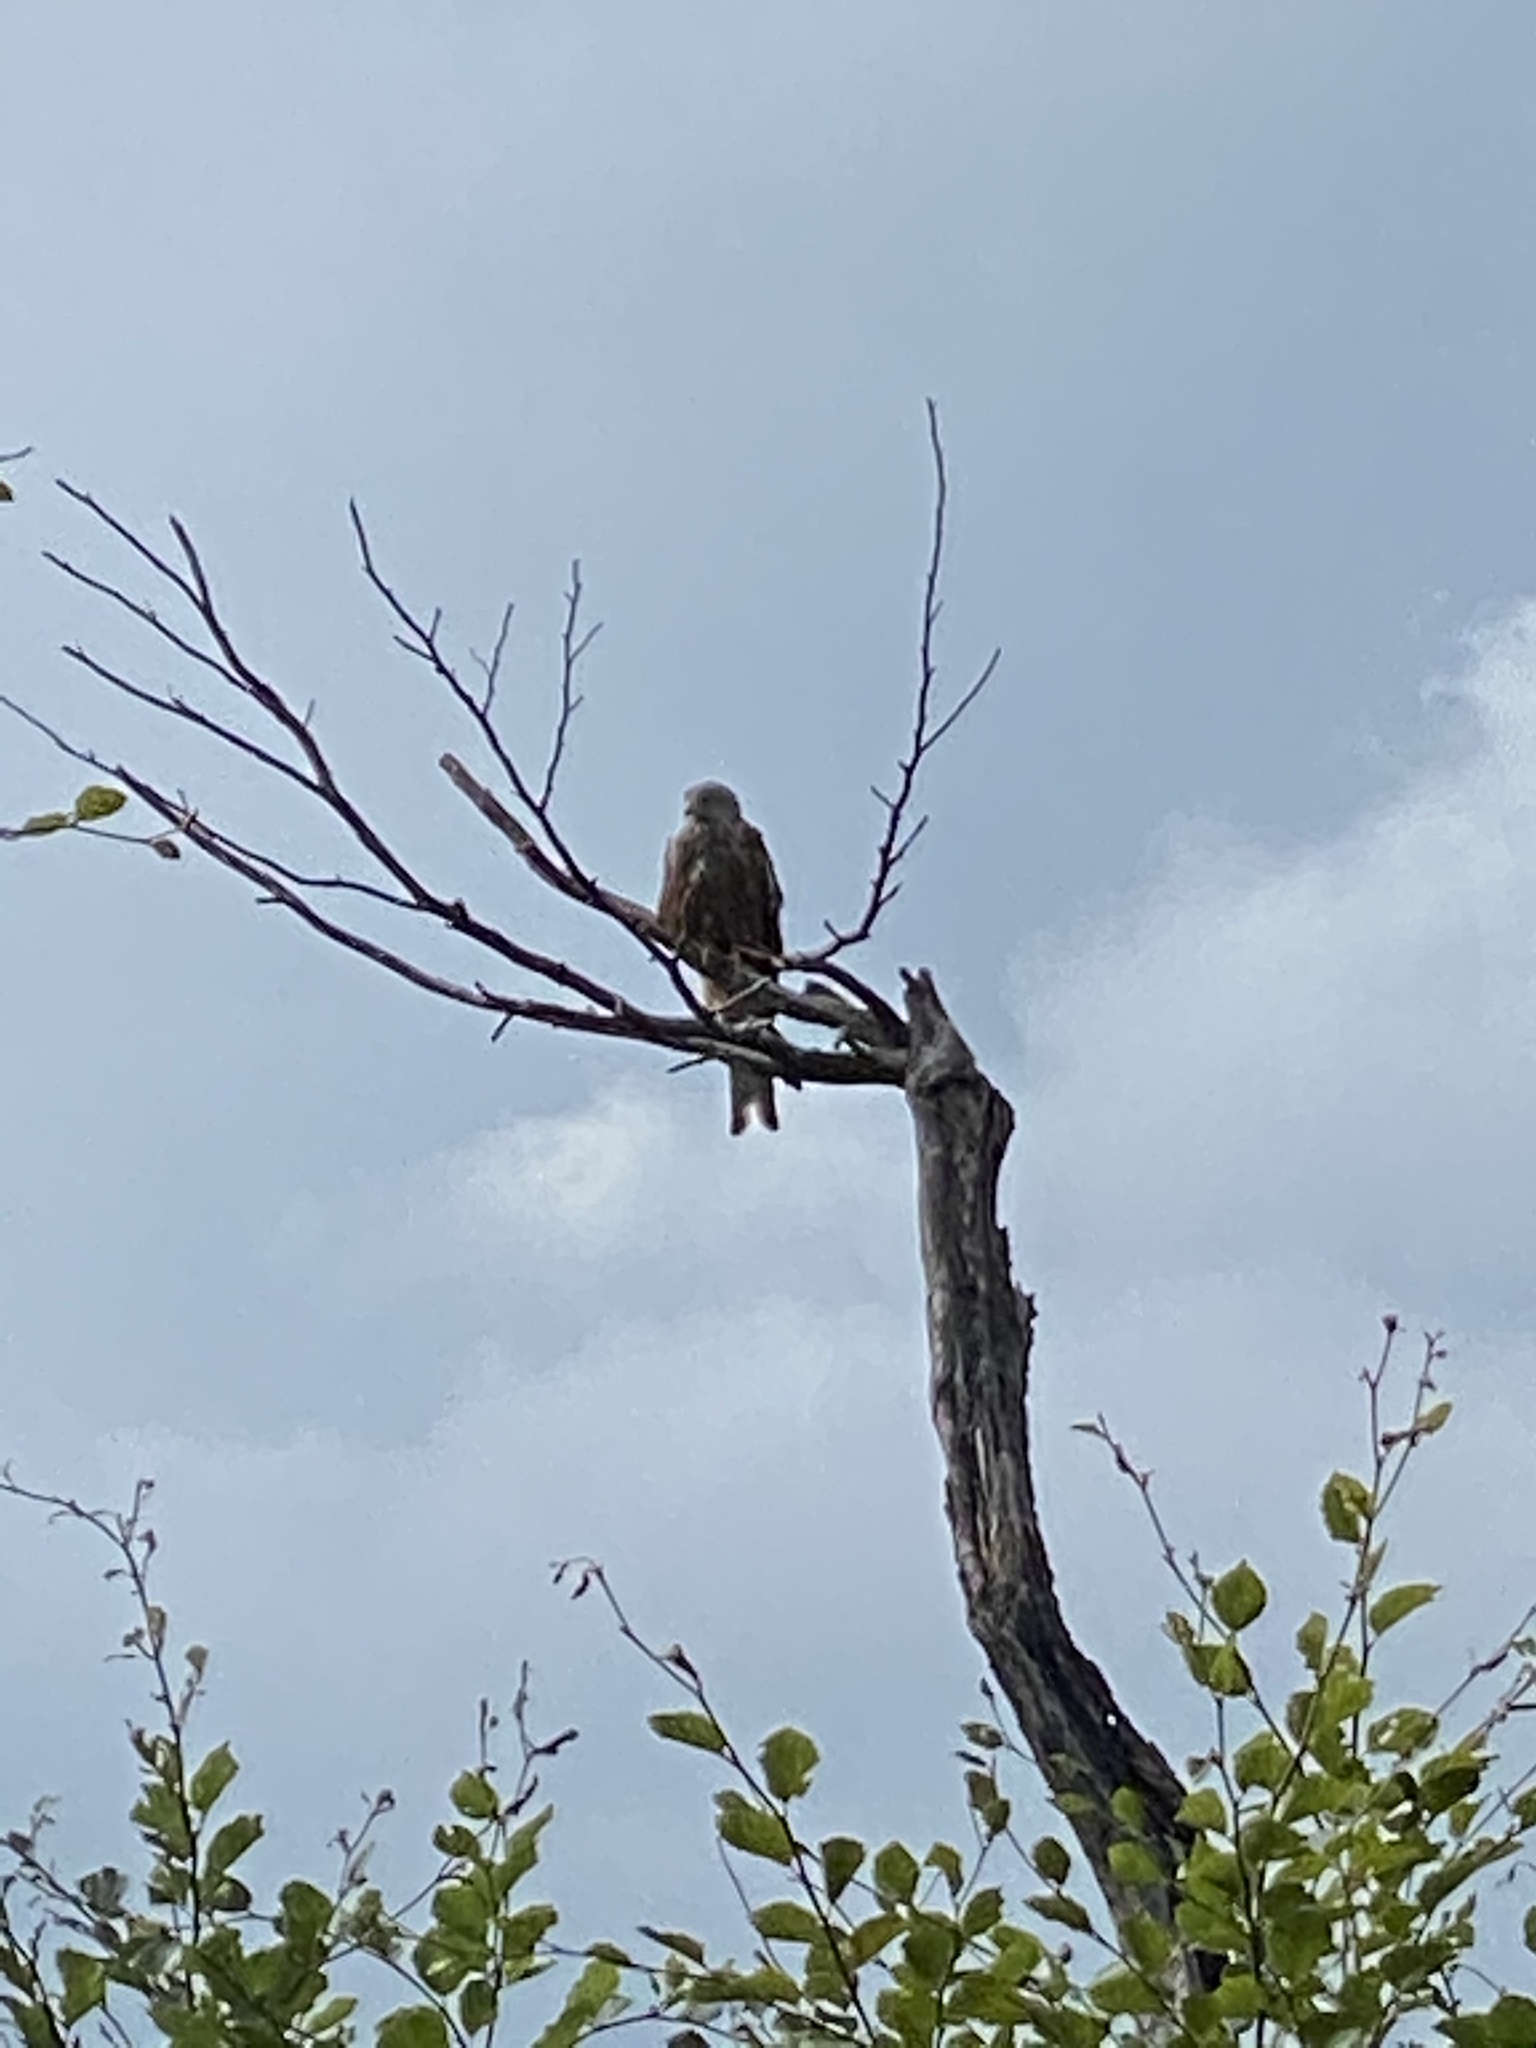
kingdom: Animalia
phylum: Chordata
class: Aves
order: Accipitriformes
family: Accipitridae
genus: Milvus
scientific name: Milvus milvus
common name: Red kite
